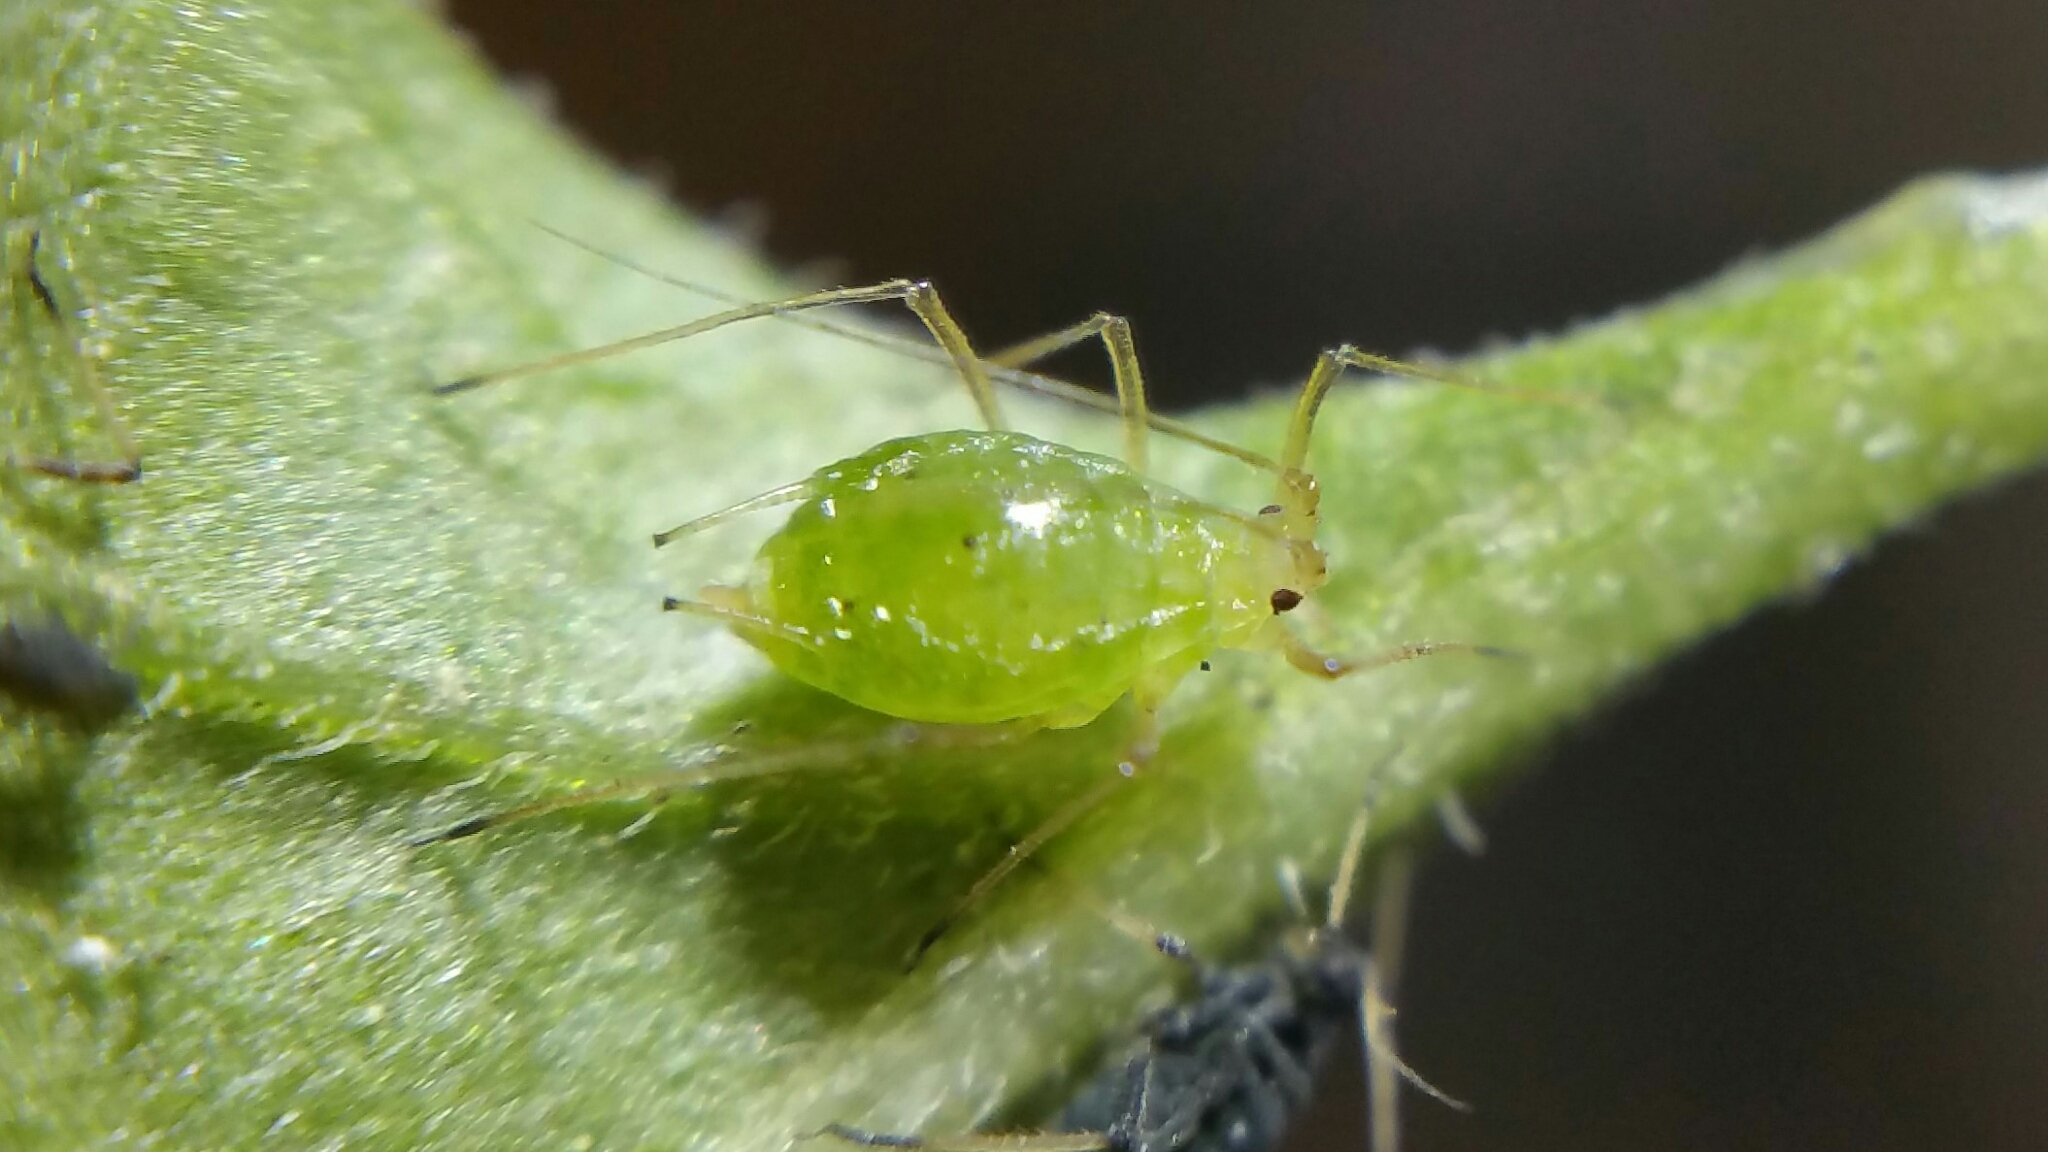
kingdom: Animalia
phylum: Arthropoda
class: Insecta
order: Hemiptera
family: Aphididae
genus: Aulacorthum
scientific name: Aulacorthum solani
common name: Foxglove aphid
